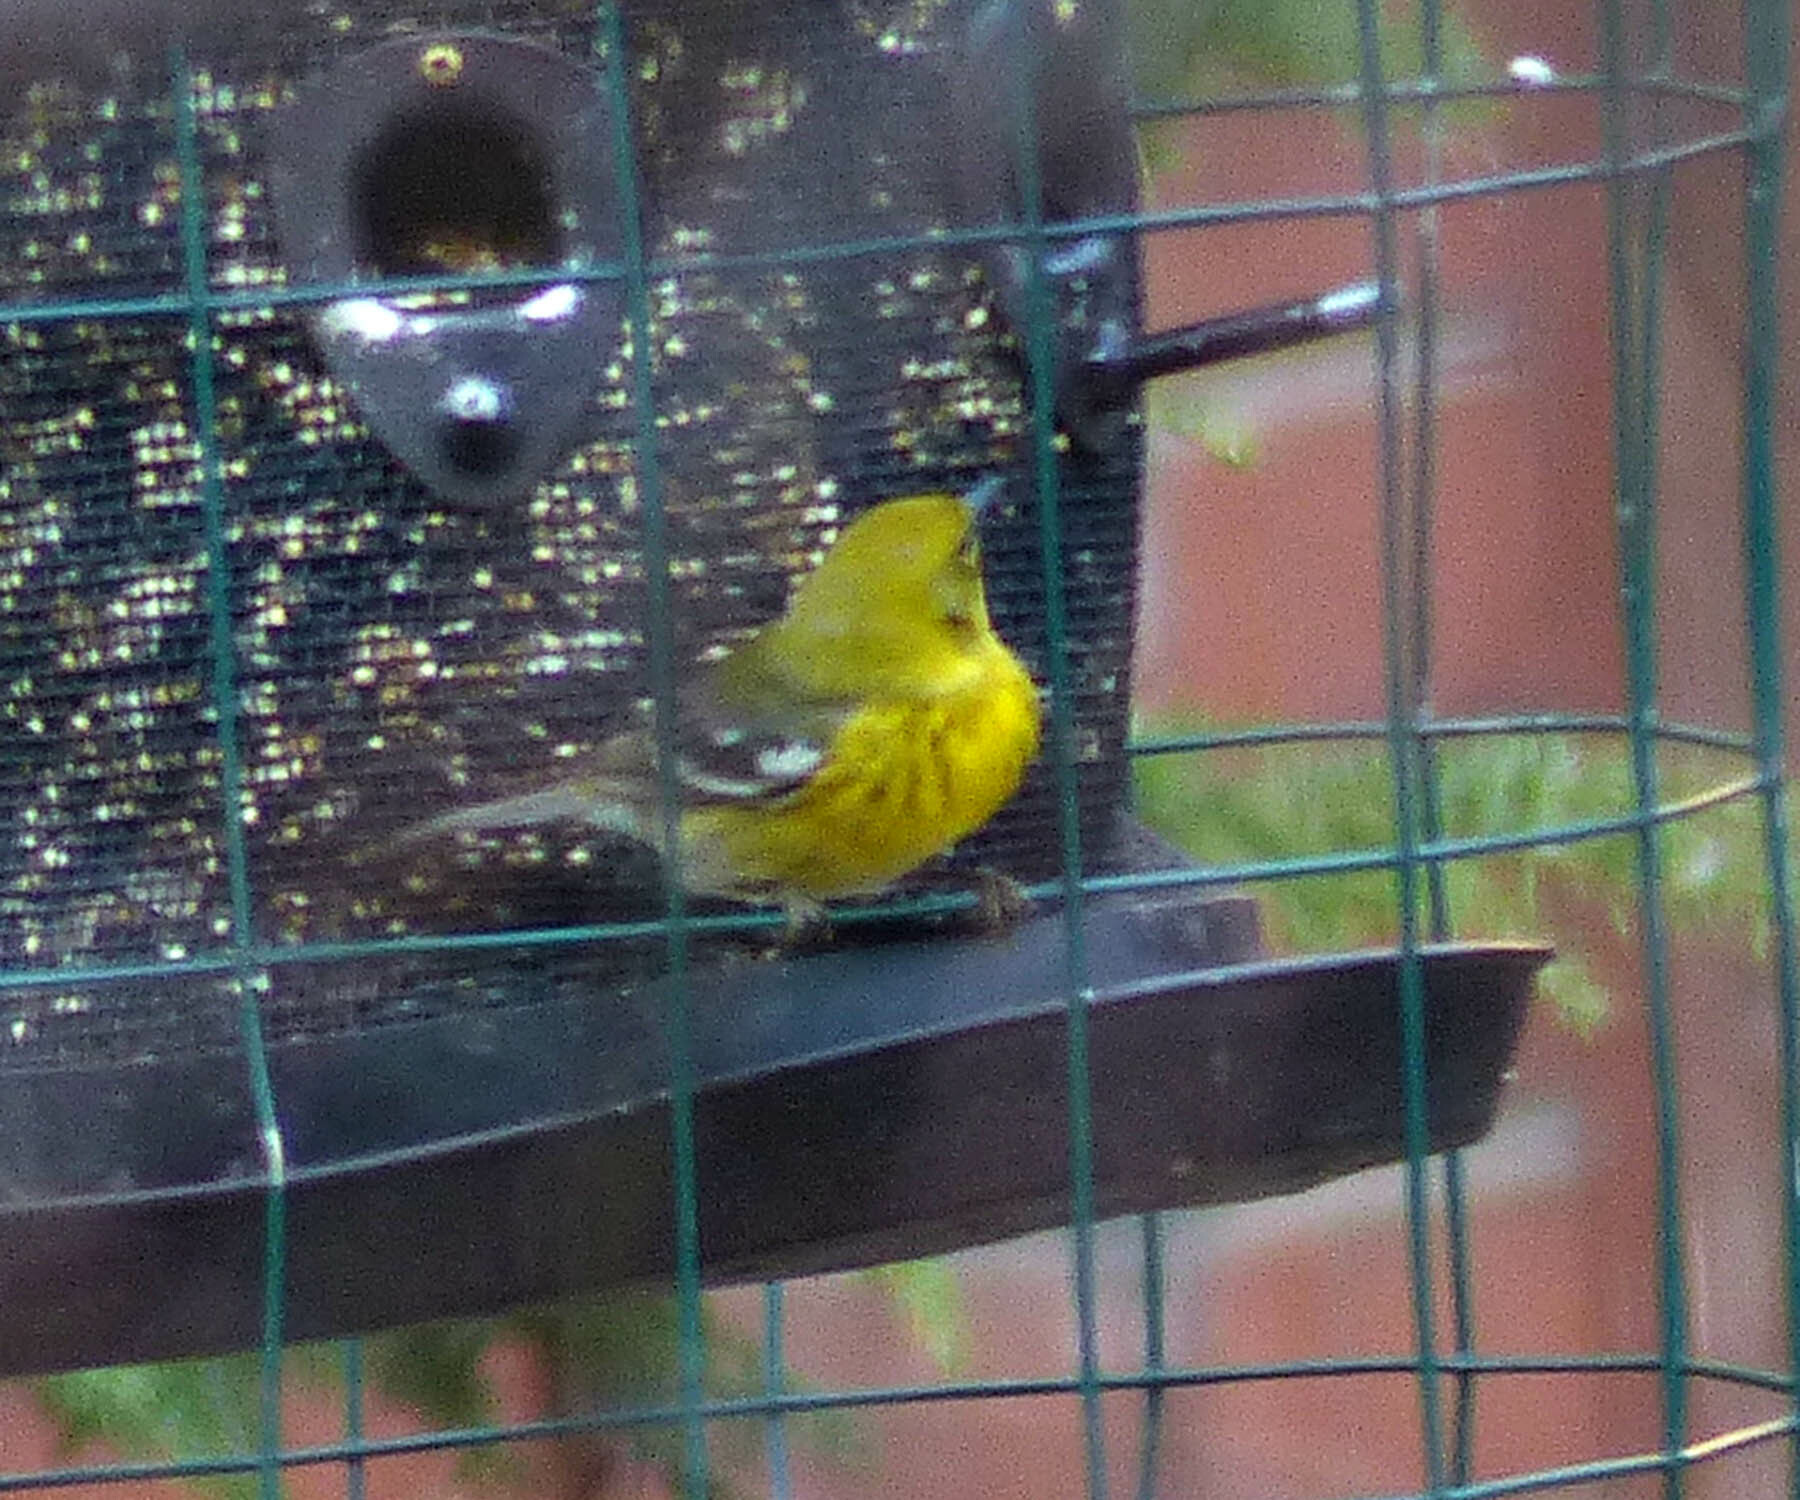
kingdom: Animalia
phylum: Chordata
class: Aves
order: Passeriformes
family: Parulidae
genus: Setophaga
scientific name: Setophaga pinus
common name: Pine warbler
